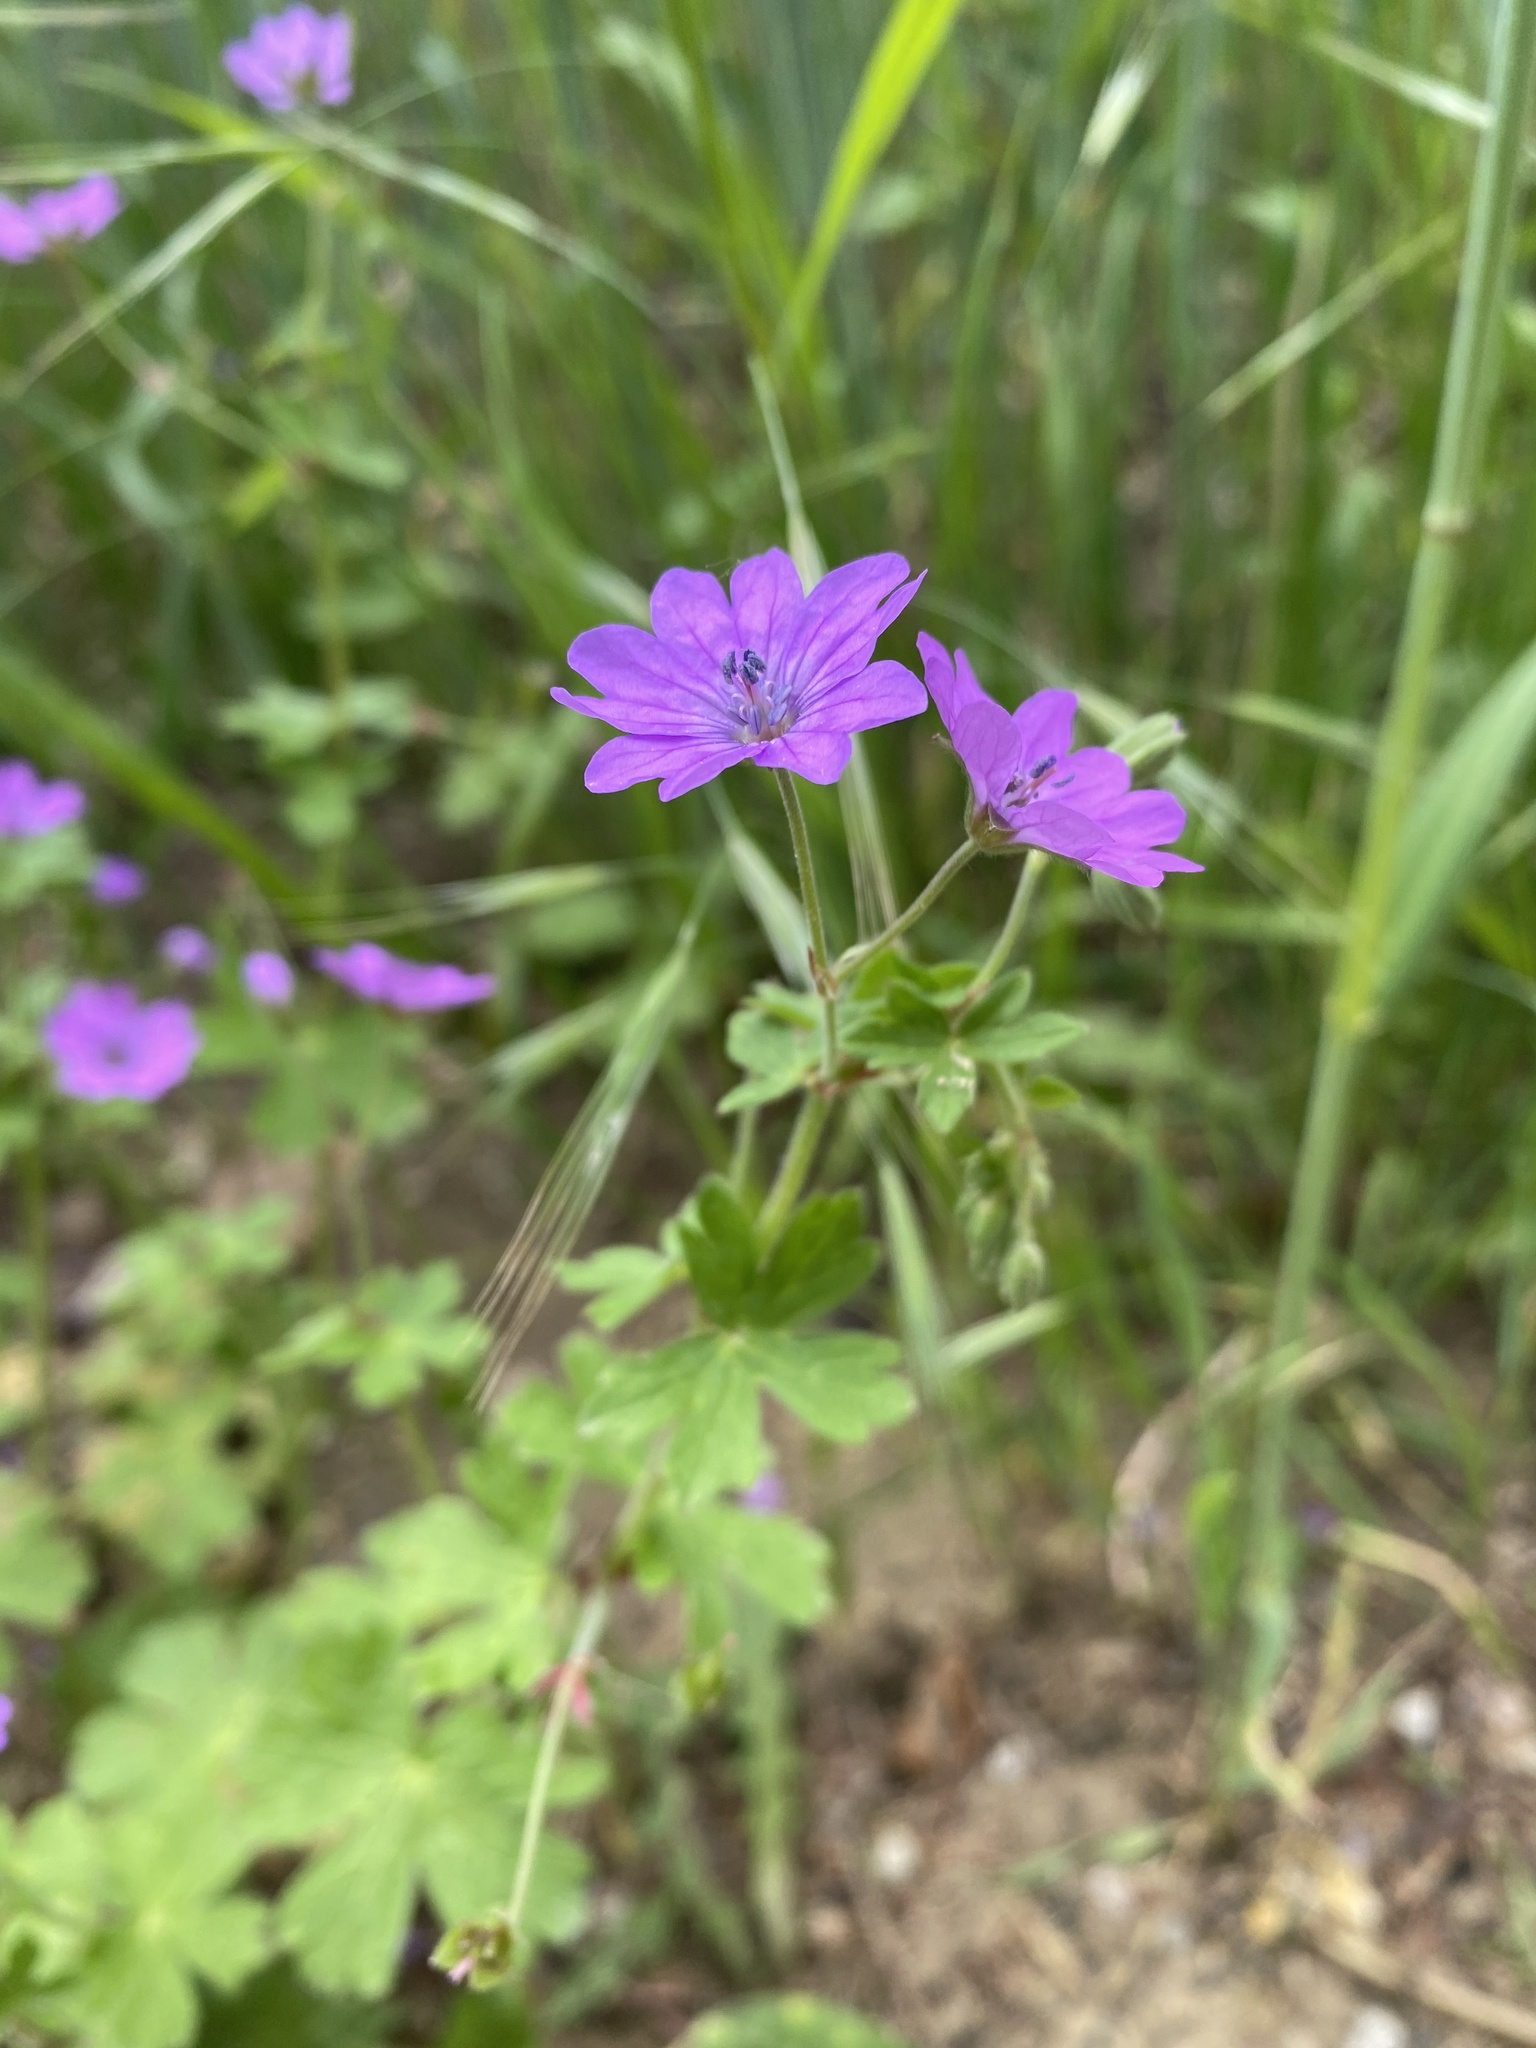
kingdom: Plantae
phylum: Tracheophyta
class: Magnoliopsida
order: Geraniales
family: Geraniaceae
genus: Geranium
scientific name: Geranium pyrenaicum
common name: Hedgerow crane's-bill
